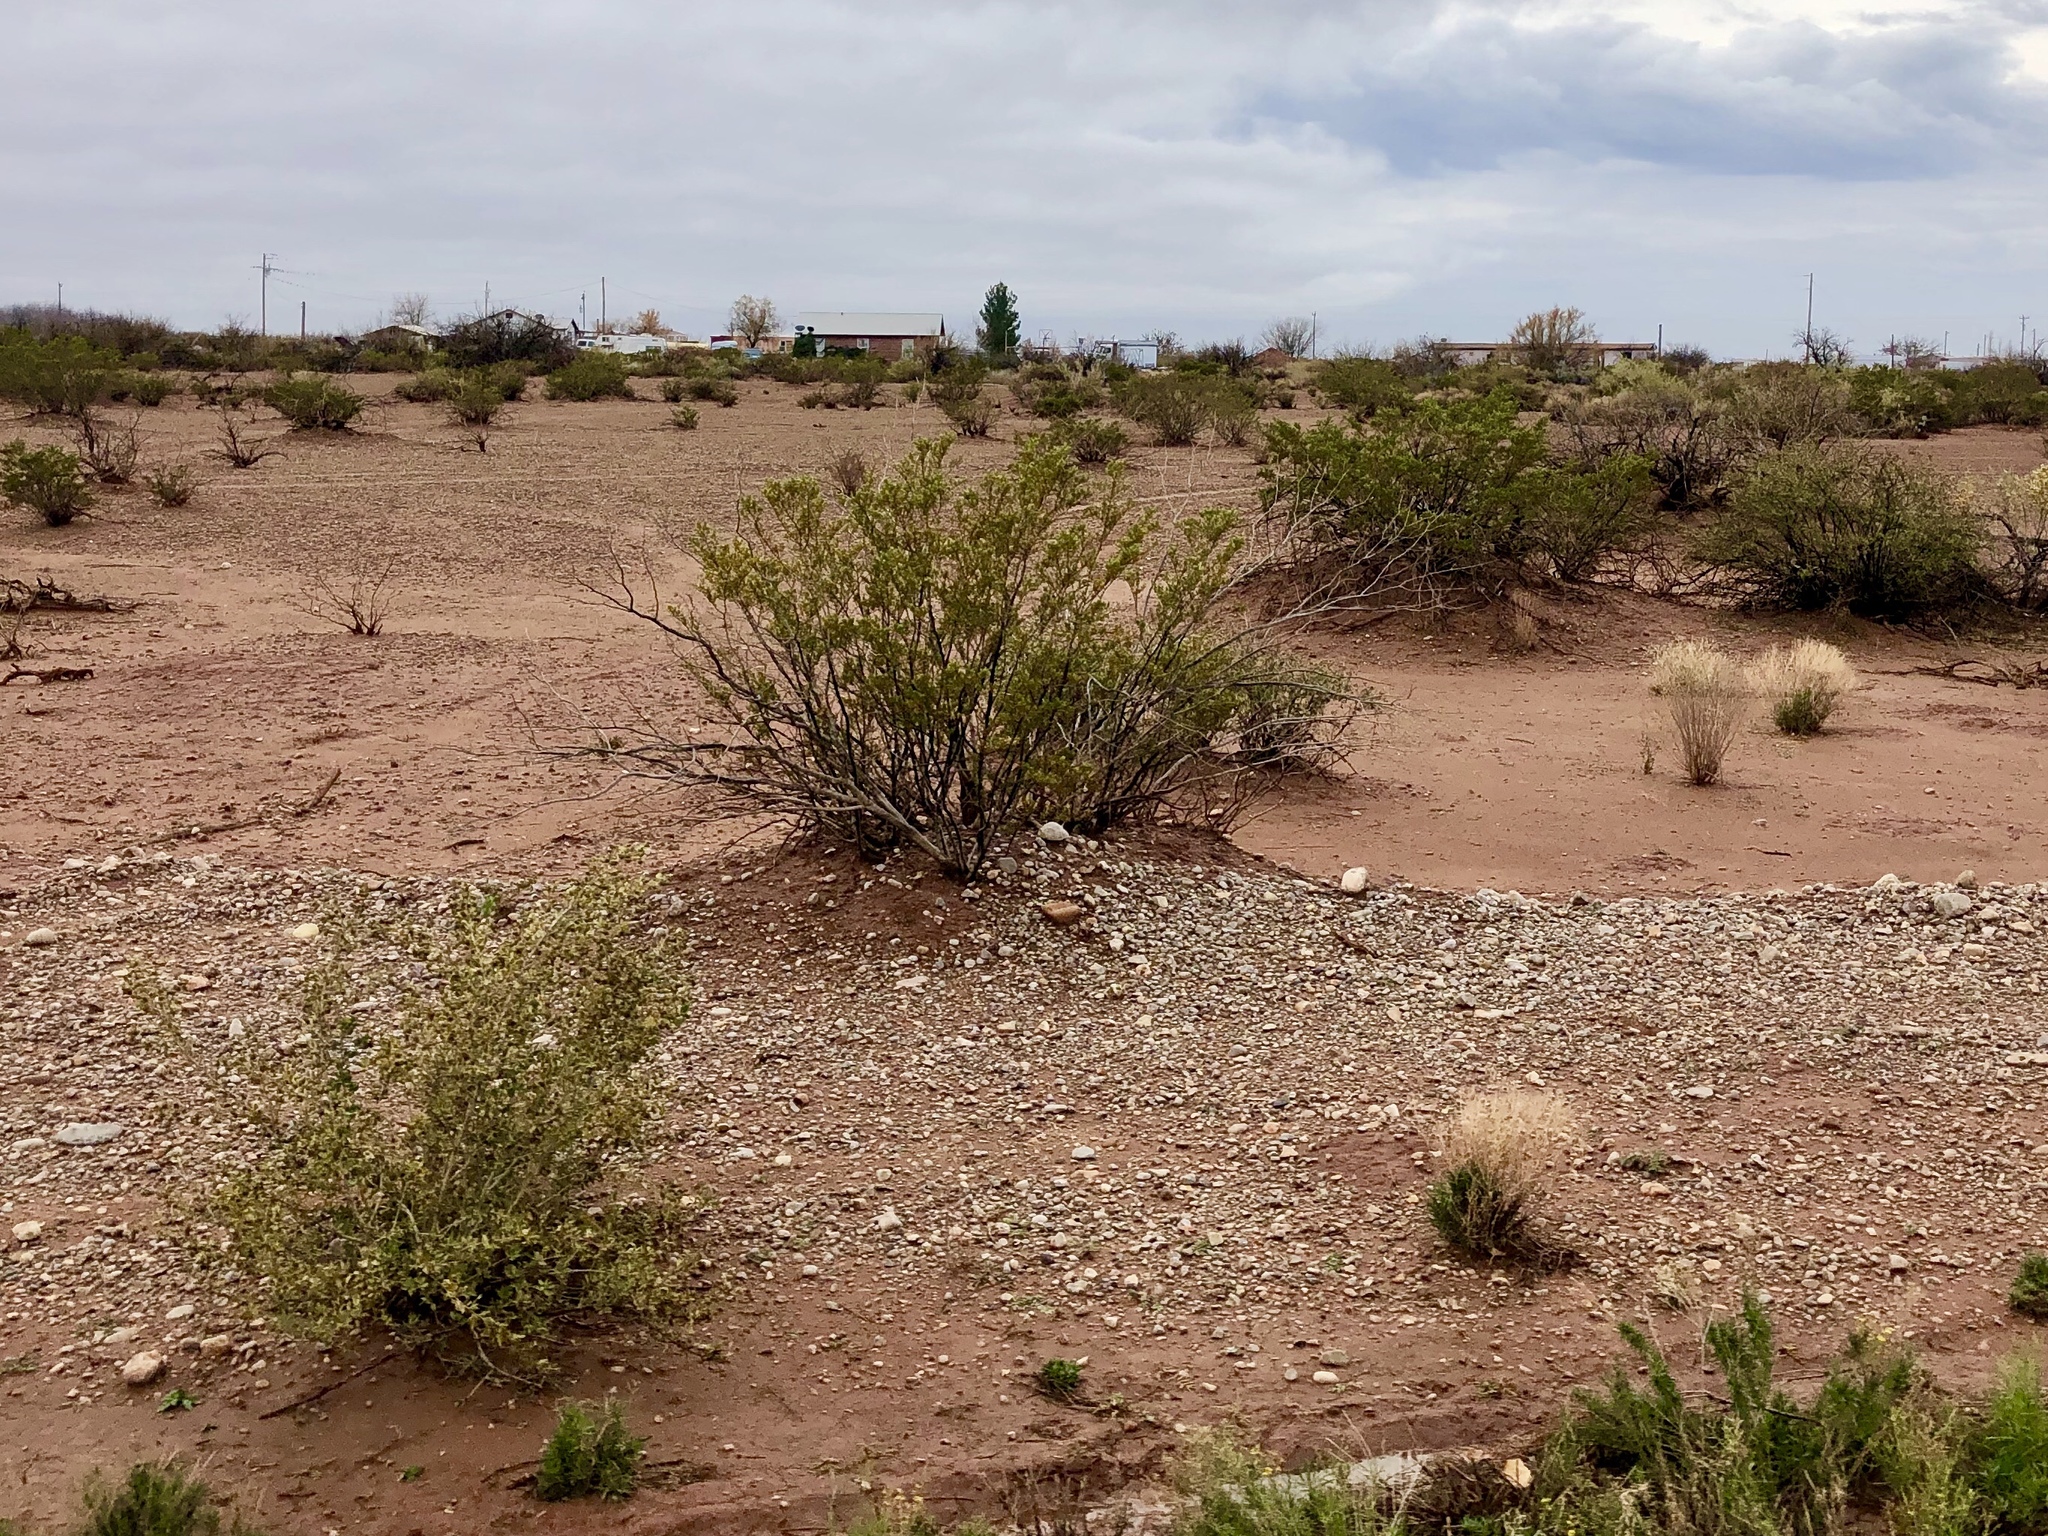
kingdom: Plantae
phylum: Tracheophyta
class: Magnoliopsida
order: Zygophyllales
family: Zygophyllaceae
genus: Larrea
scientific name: Larrea tridentata
